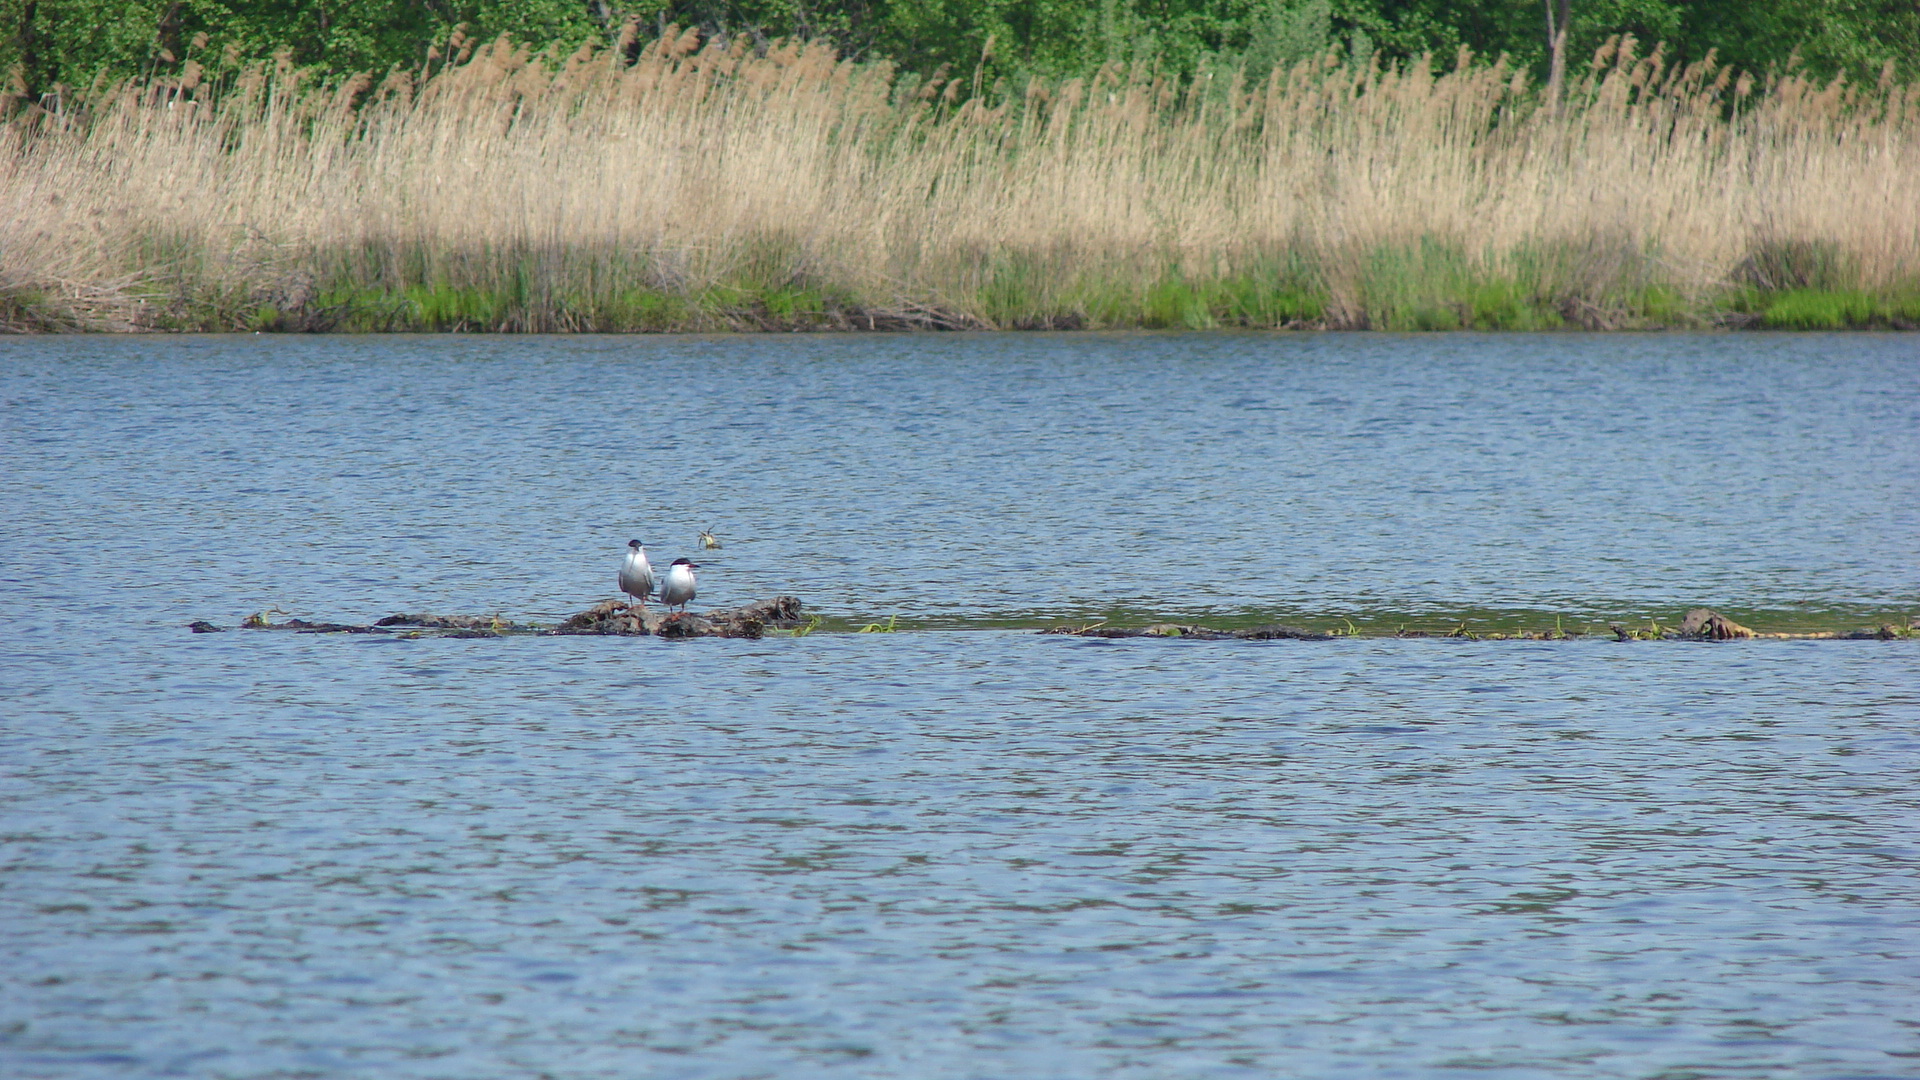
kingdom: Animalia
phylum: Chordata
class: Aves
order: Charadriiformes
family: Laridae
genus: Sterna
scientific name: Sterna hirundo
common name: Common tern
